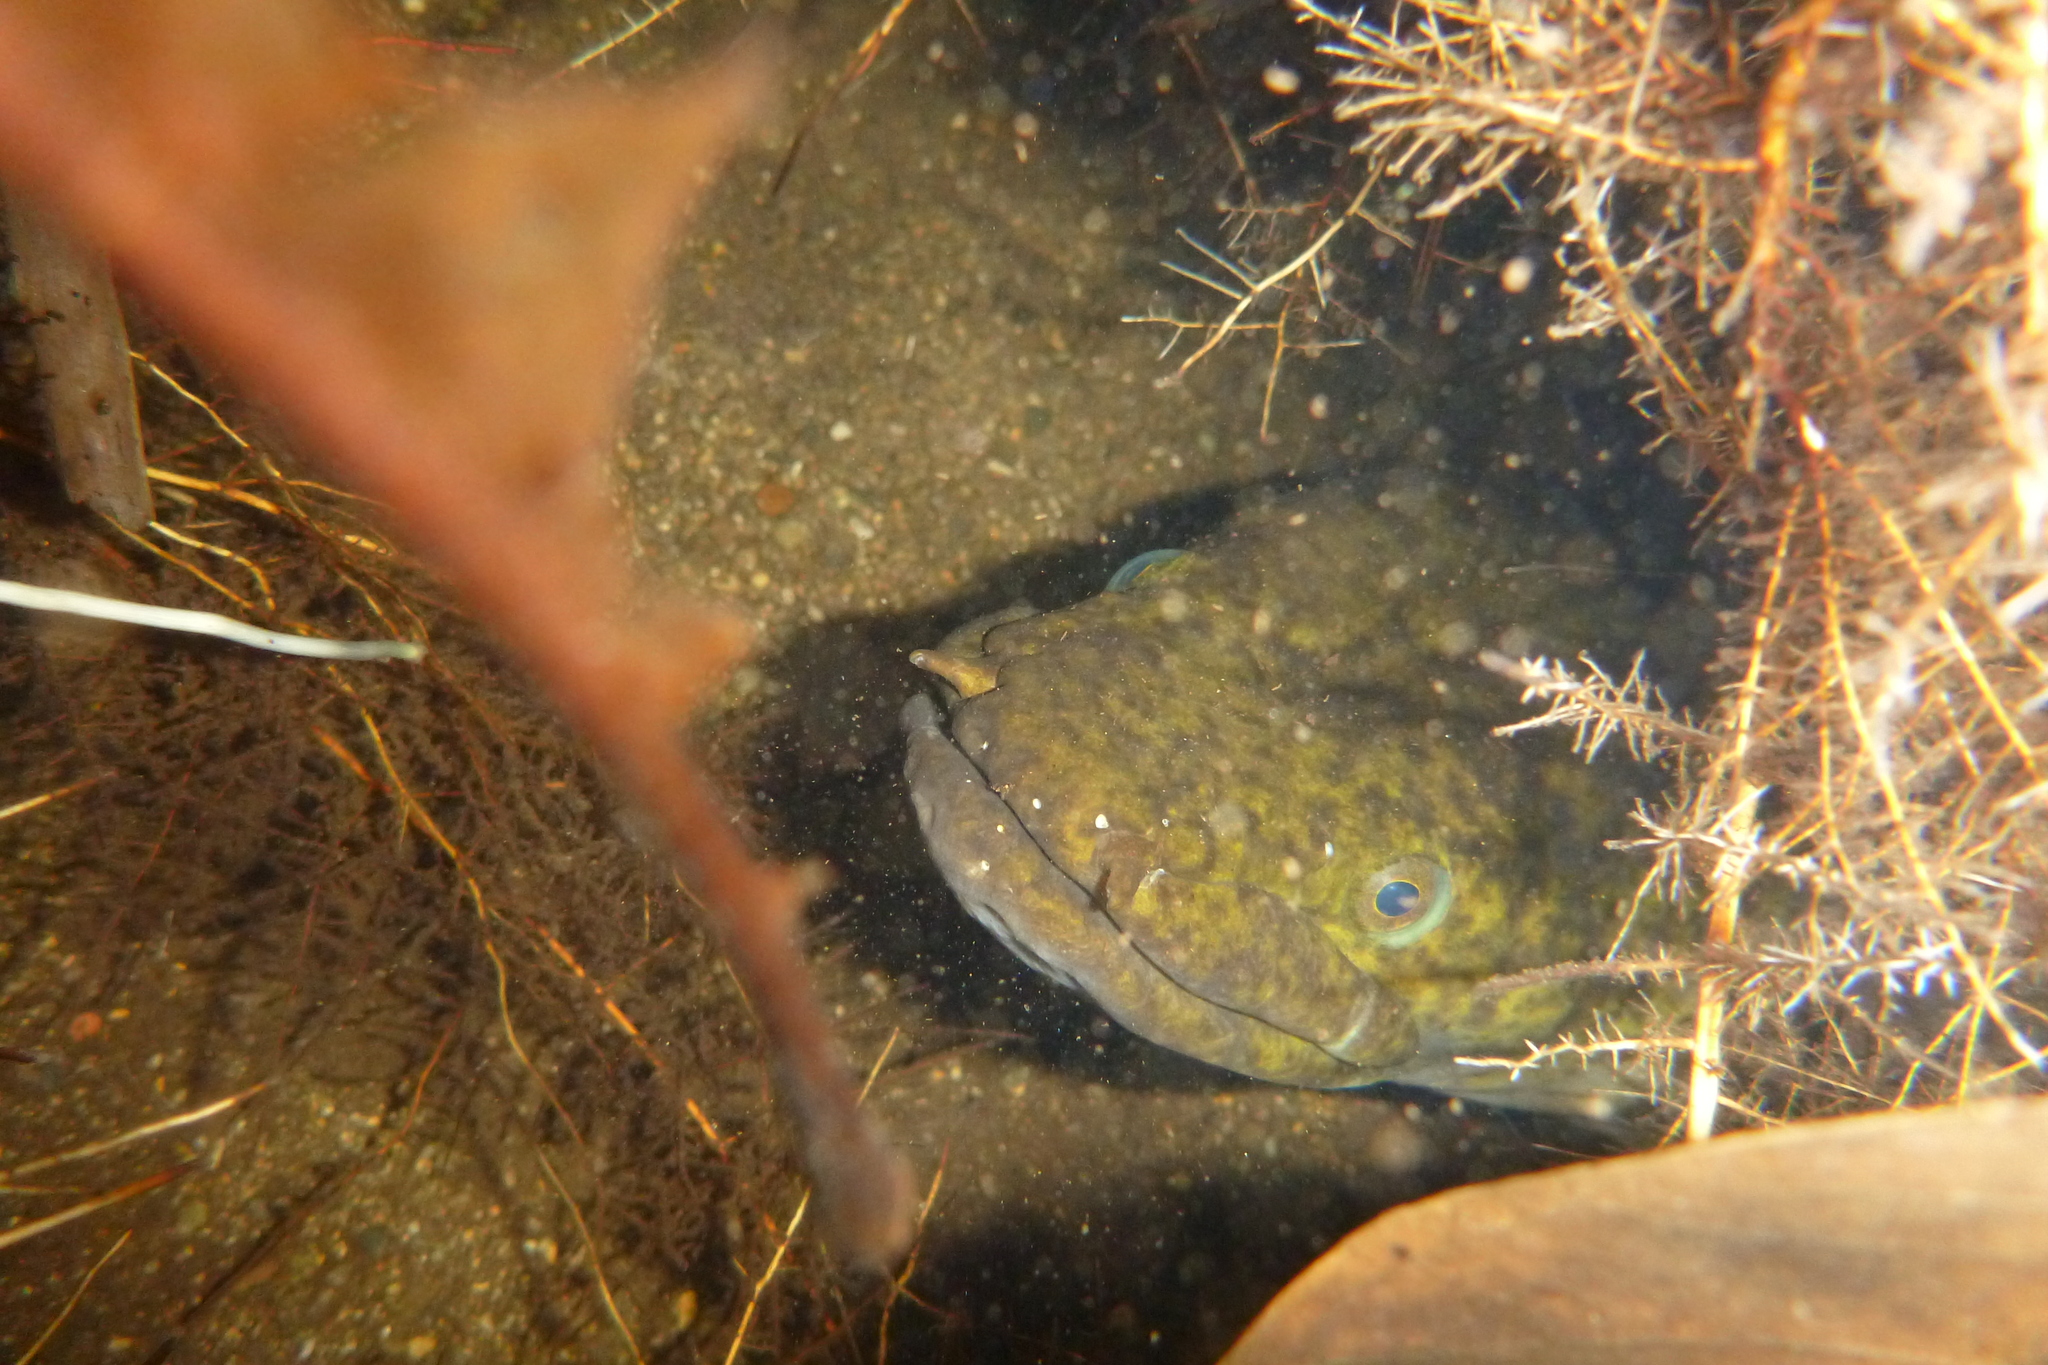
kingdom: Animalia
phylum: Chordata
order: Anguilliformes
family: Anguillidae
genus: Anguilla
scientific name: Anguilla marmorata
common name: Giant mottled eel
